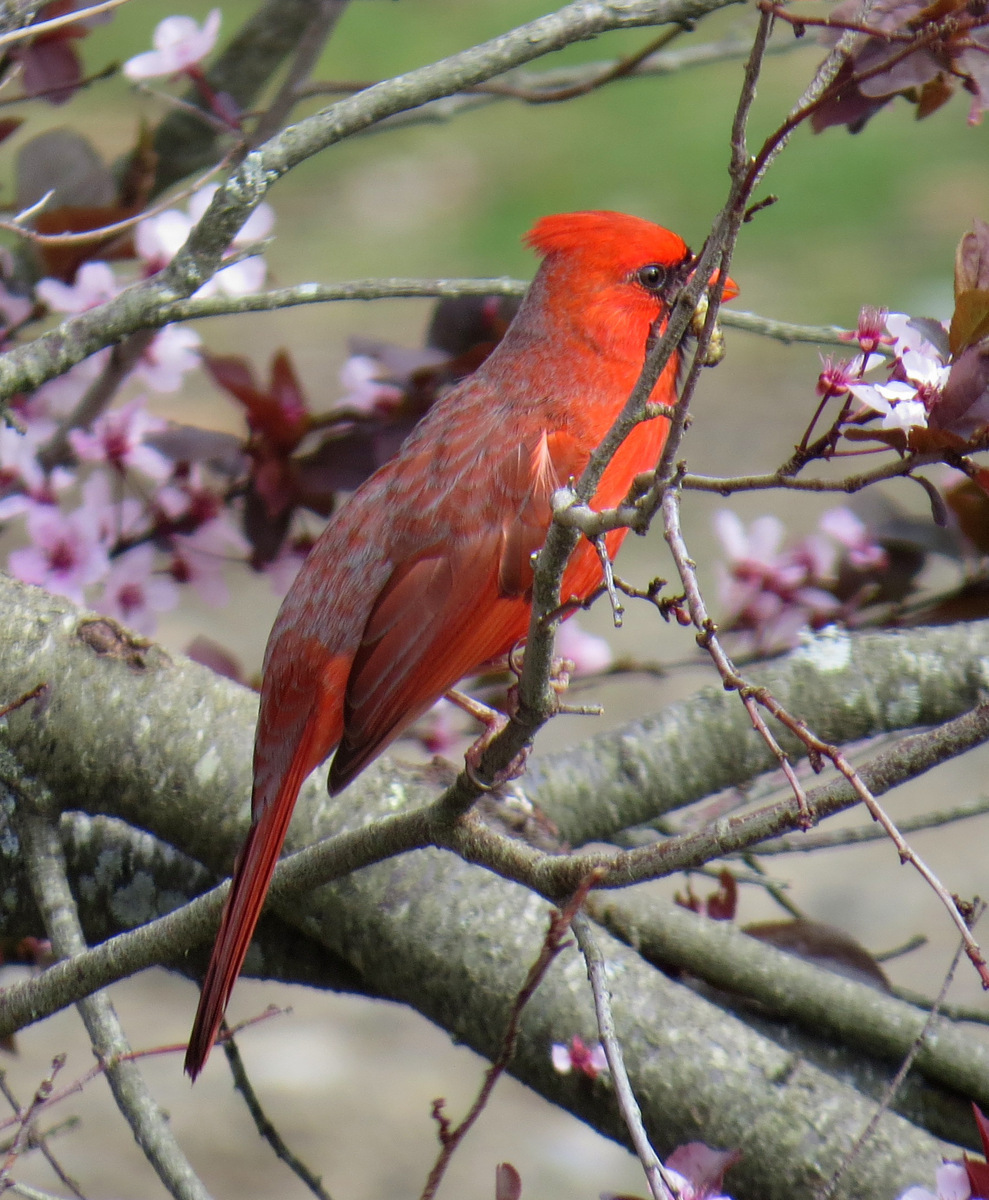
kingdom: Animalia
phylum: Chordata
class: Aves
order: Passeriformes
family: Cardinalidae
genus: Cardinalis
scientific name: Cardinalis cardinalis
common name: Northern cardinal
